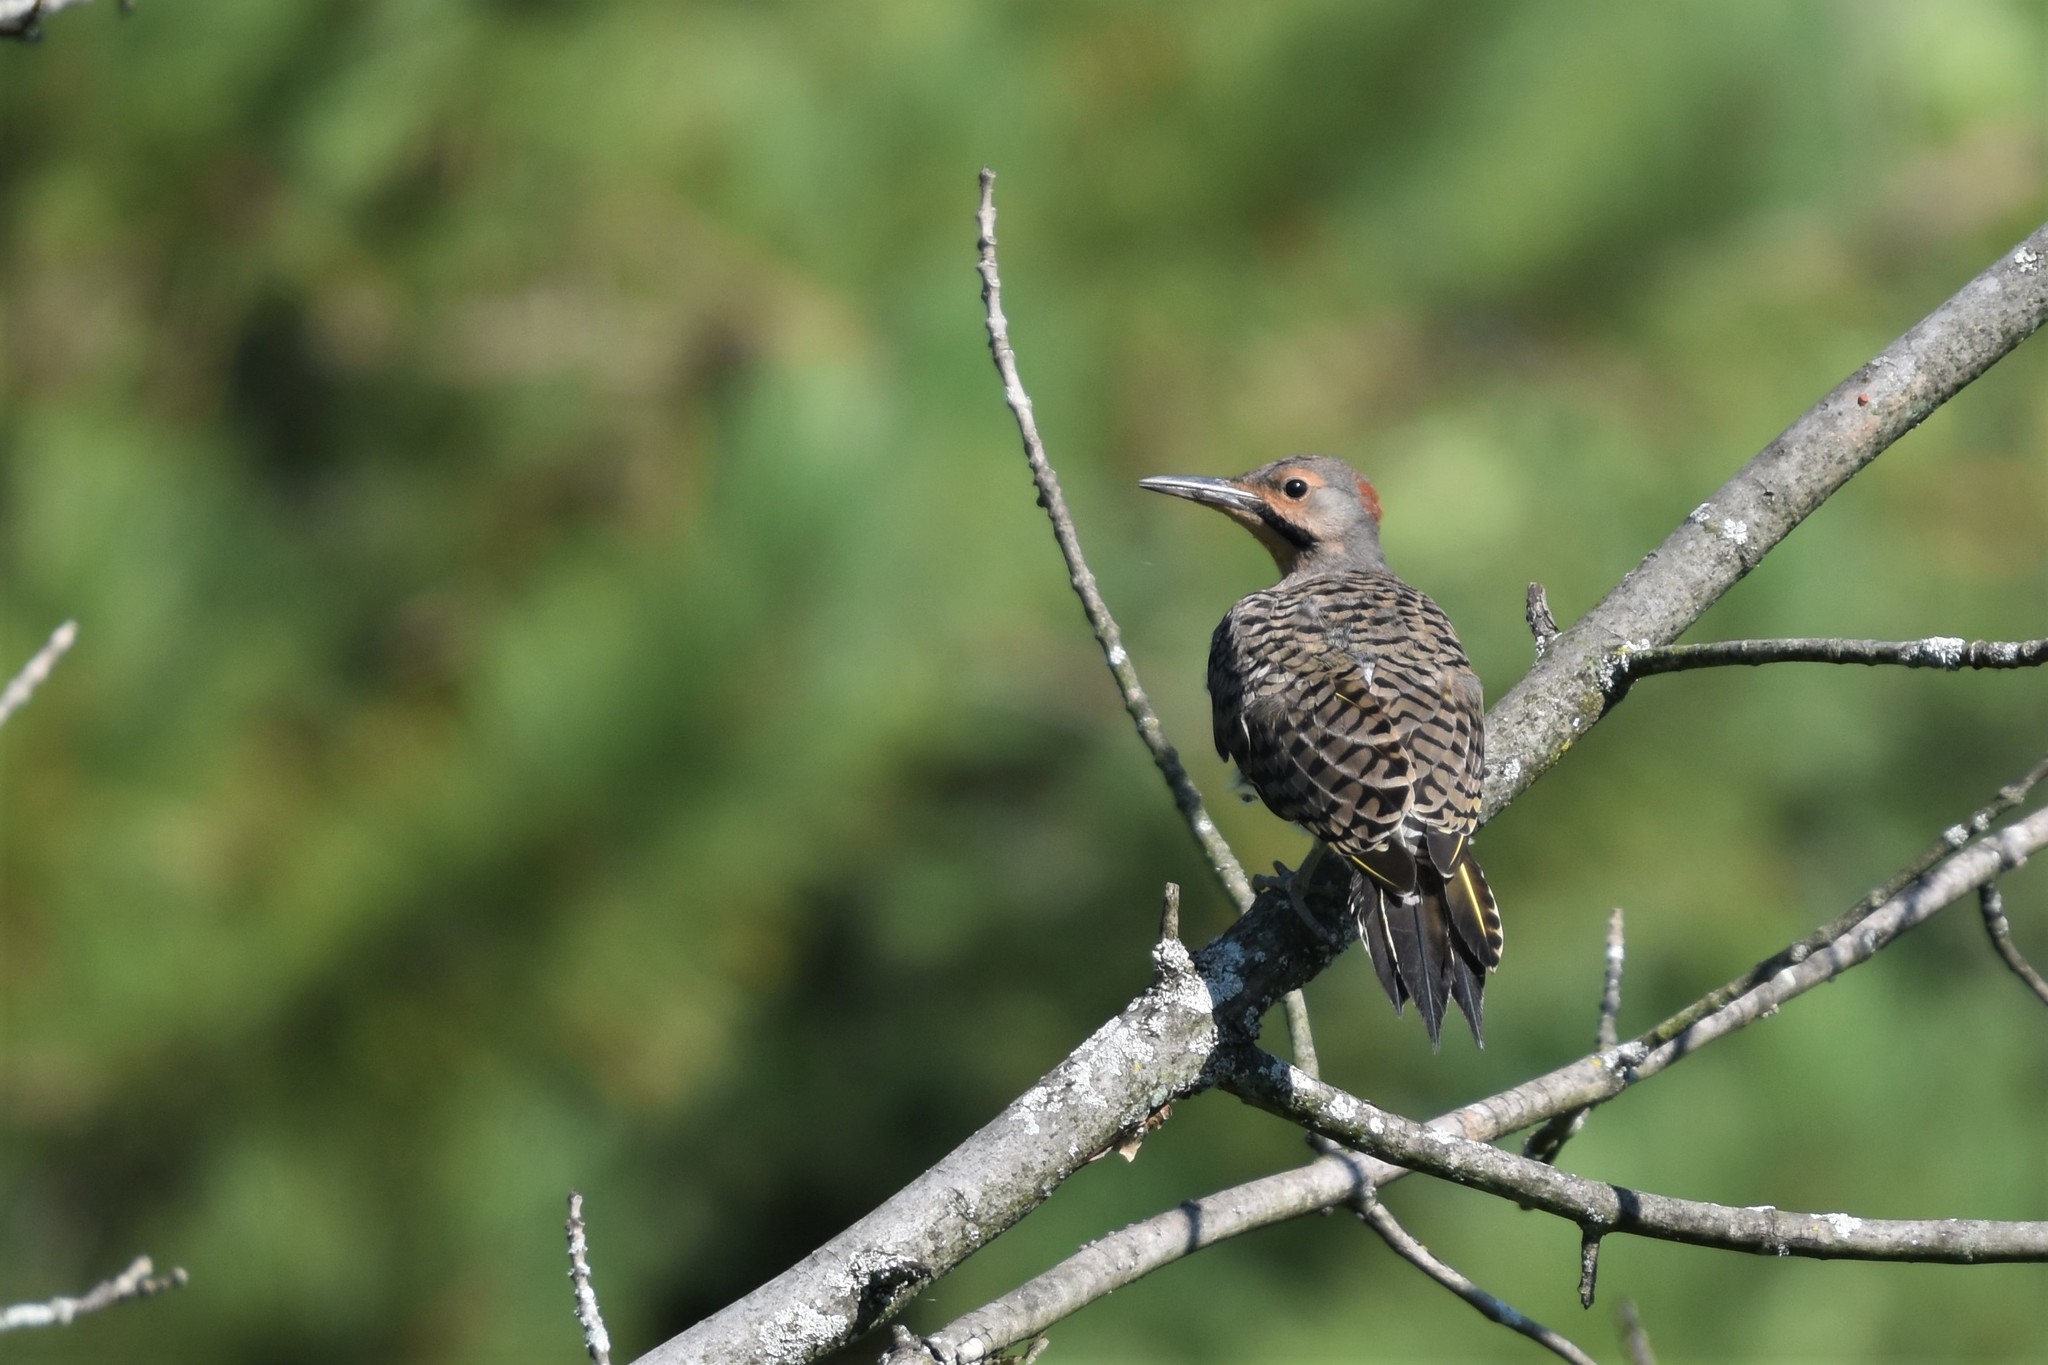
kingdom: Animalia
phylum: Chordata
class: Aves
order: Piciformes
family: Picidae
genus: Colaptes
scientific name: Colaptes auratus
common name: Northern flicker
